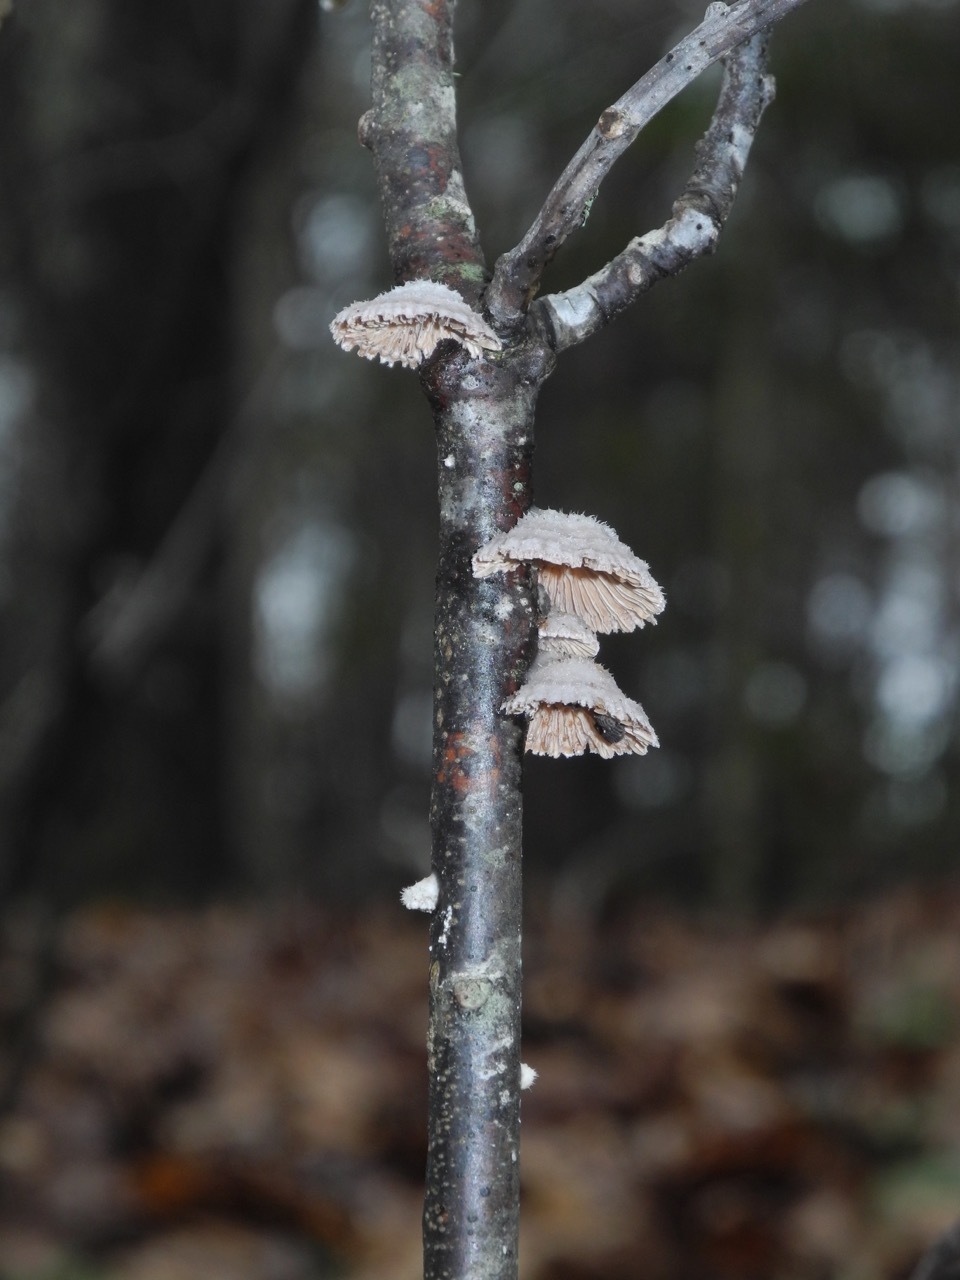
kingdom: Fungi
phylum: Basidiomycota
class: Agaricomycetes
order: Agaricales
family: Schizophyllaceae
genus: Schizophyllum
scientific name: Schizophyllum commune
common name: Common porecrust
